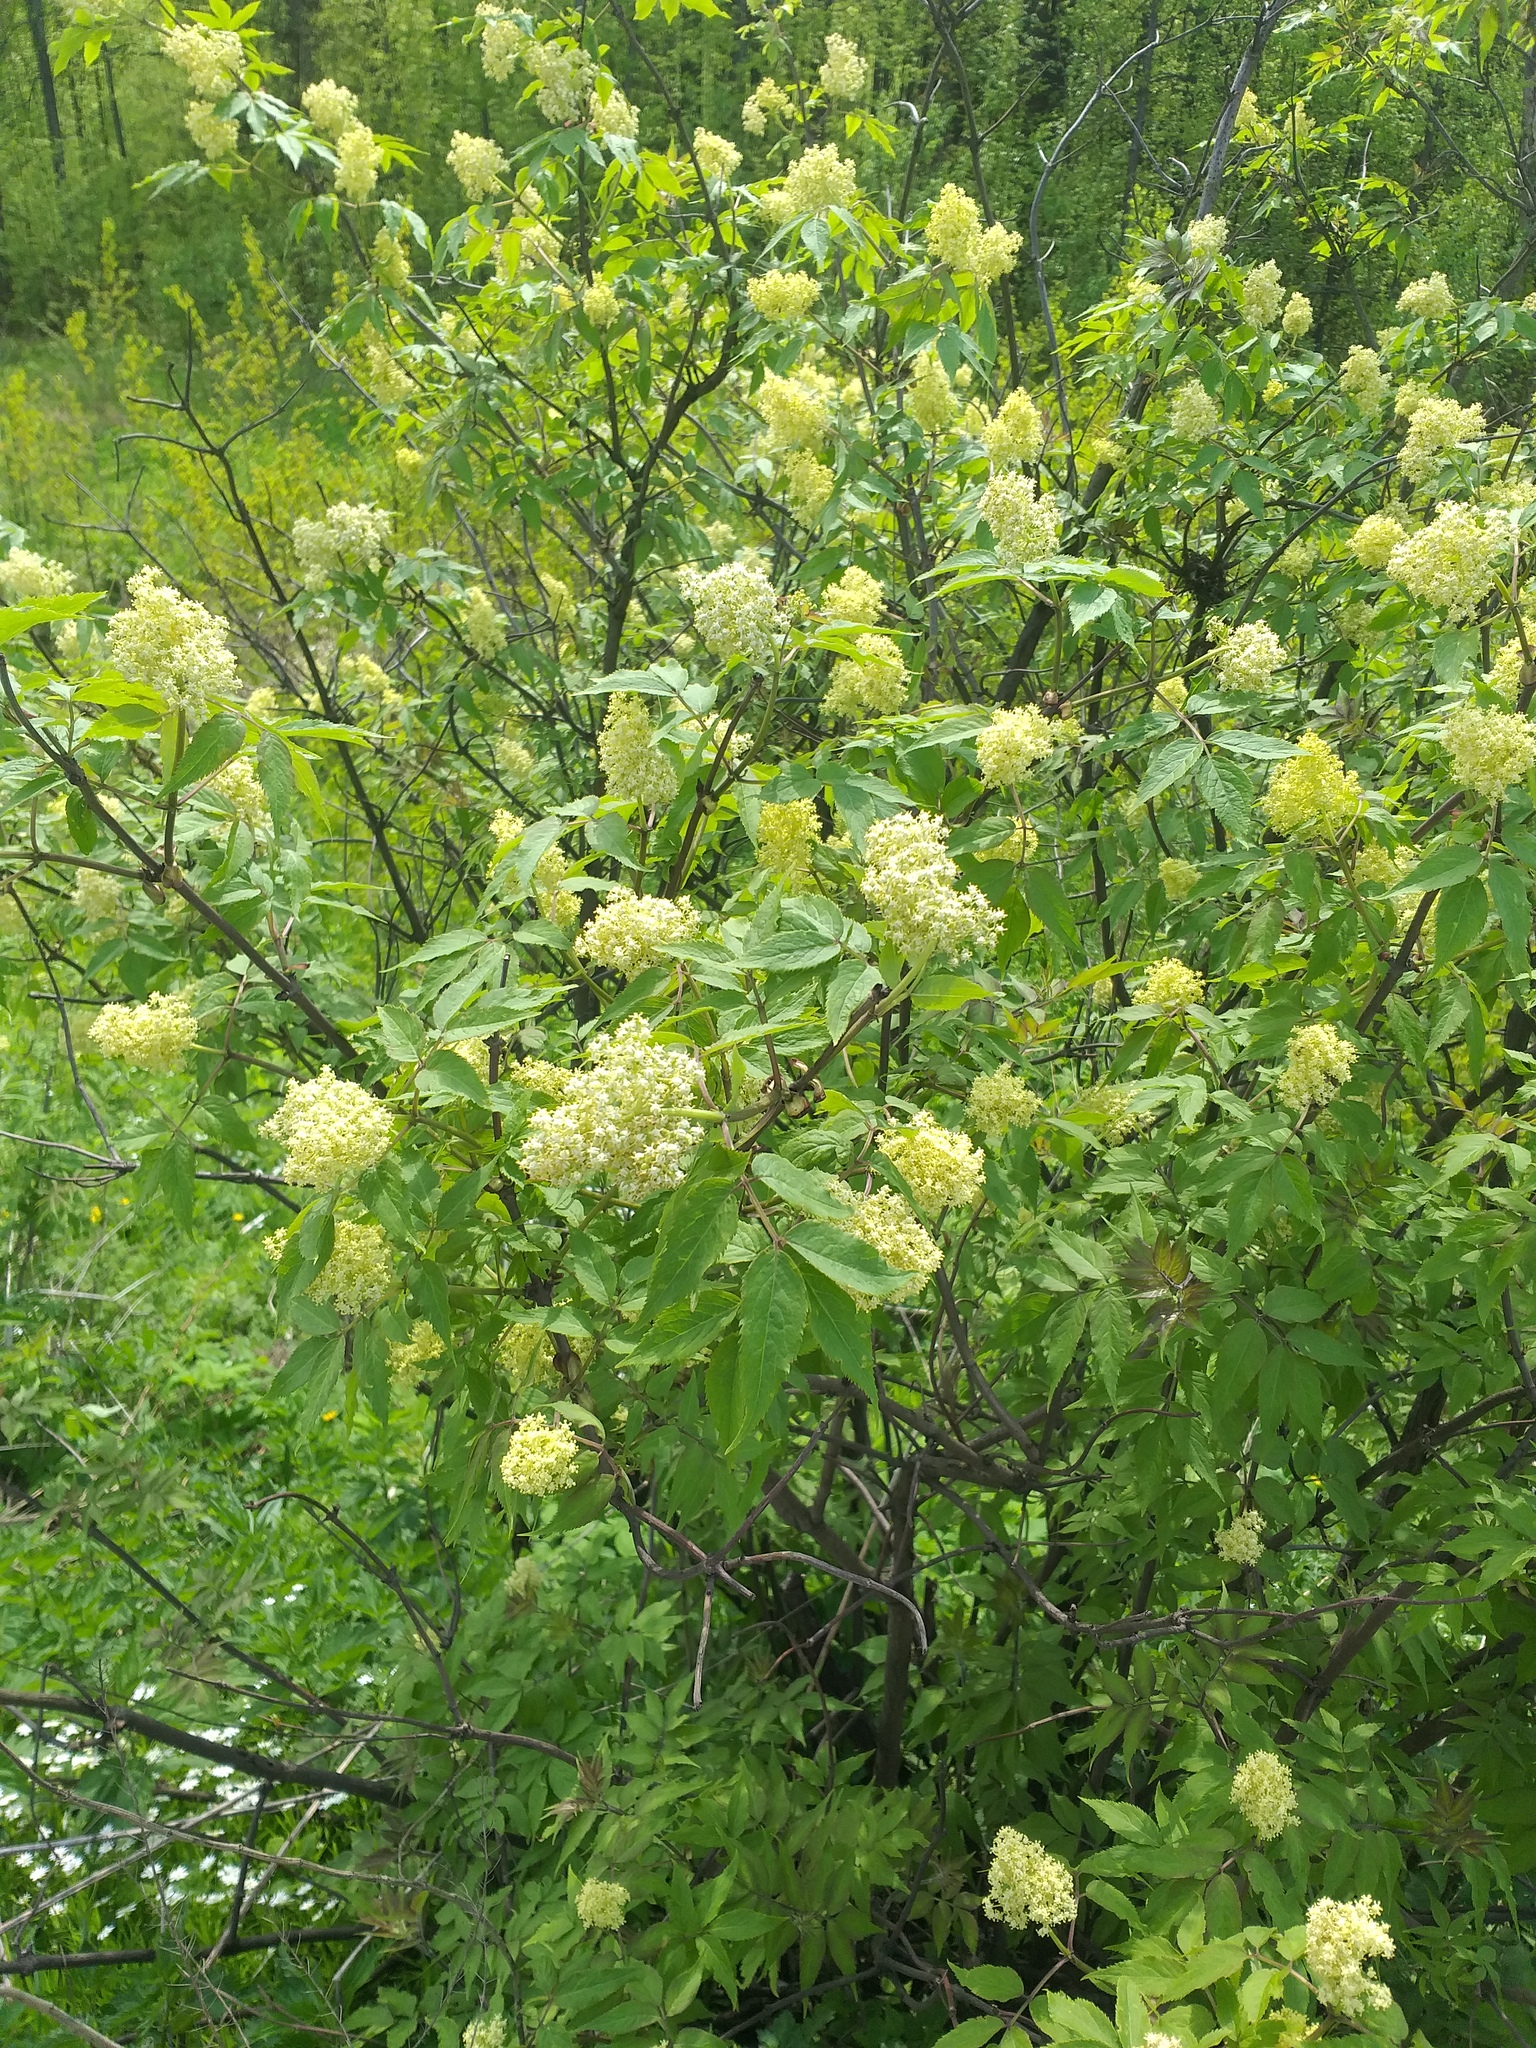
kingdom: Plantae
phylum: Tracheophyta
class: Magnoliopsida
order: Dipsacales
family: Viburnaceae
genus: Sambucus
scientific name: Sambucus racemosa
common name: Red-berried elder
